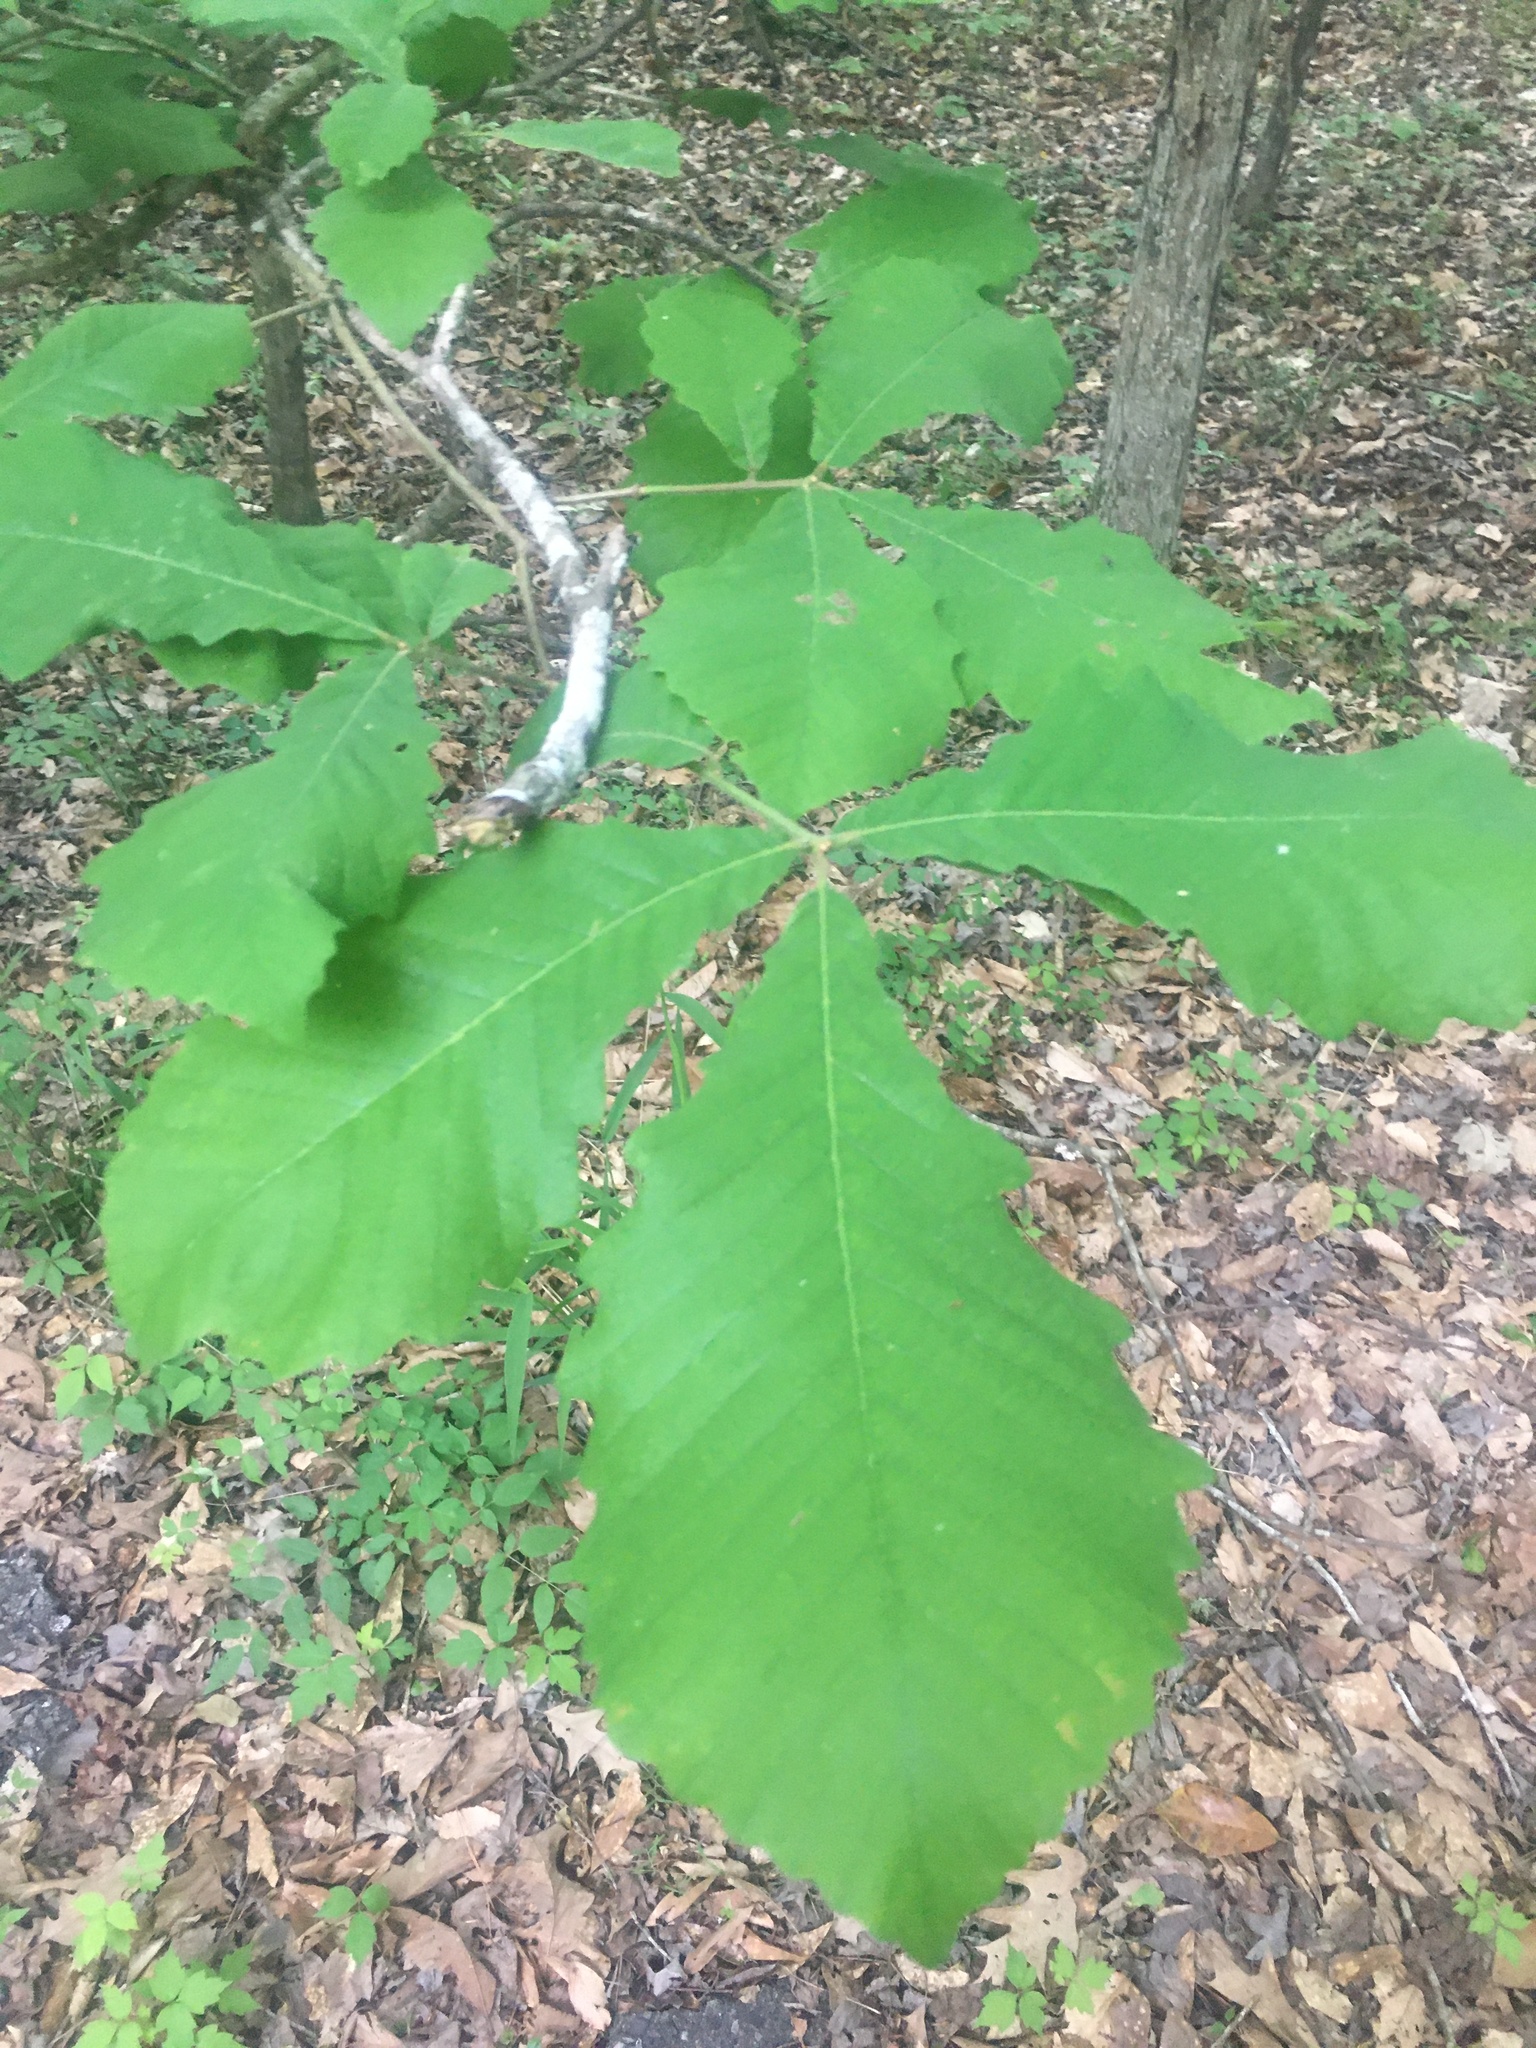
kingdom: Plantae
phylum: Tracheophyta
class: Magnoliopsida
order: Fagales
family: Fagaceae
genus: Quercus
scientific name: Quercus michauxii
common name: Swamp chestnut oak
